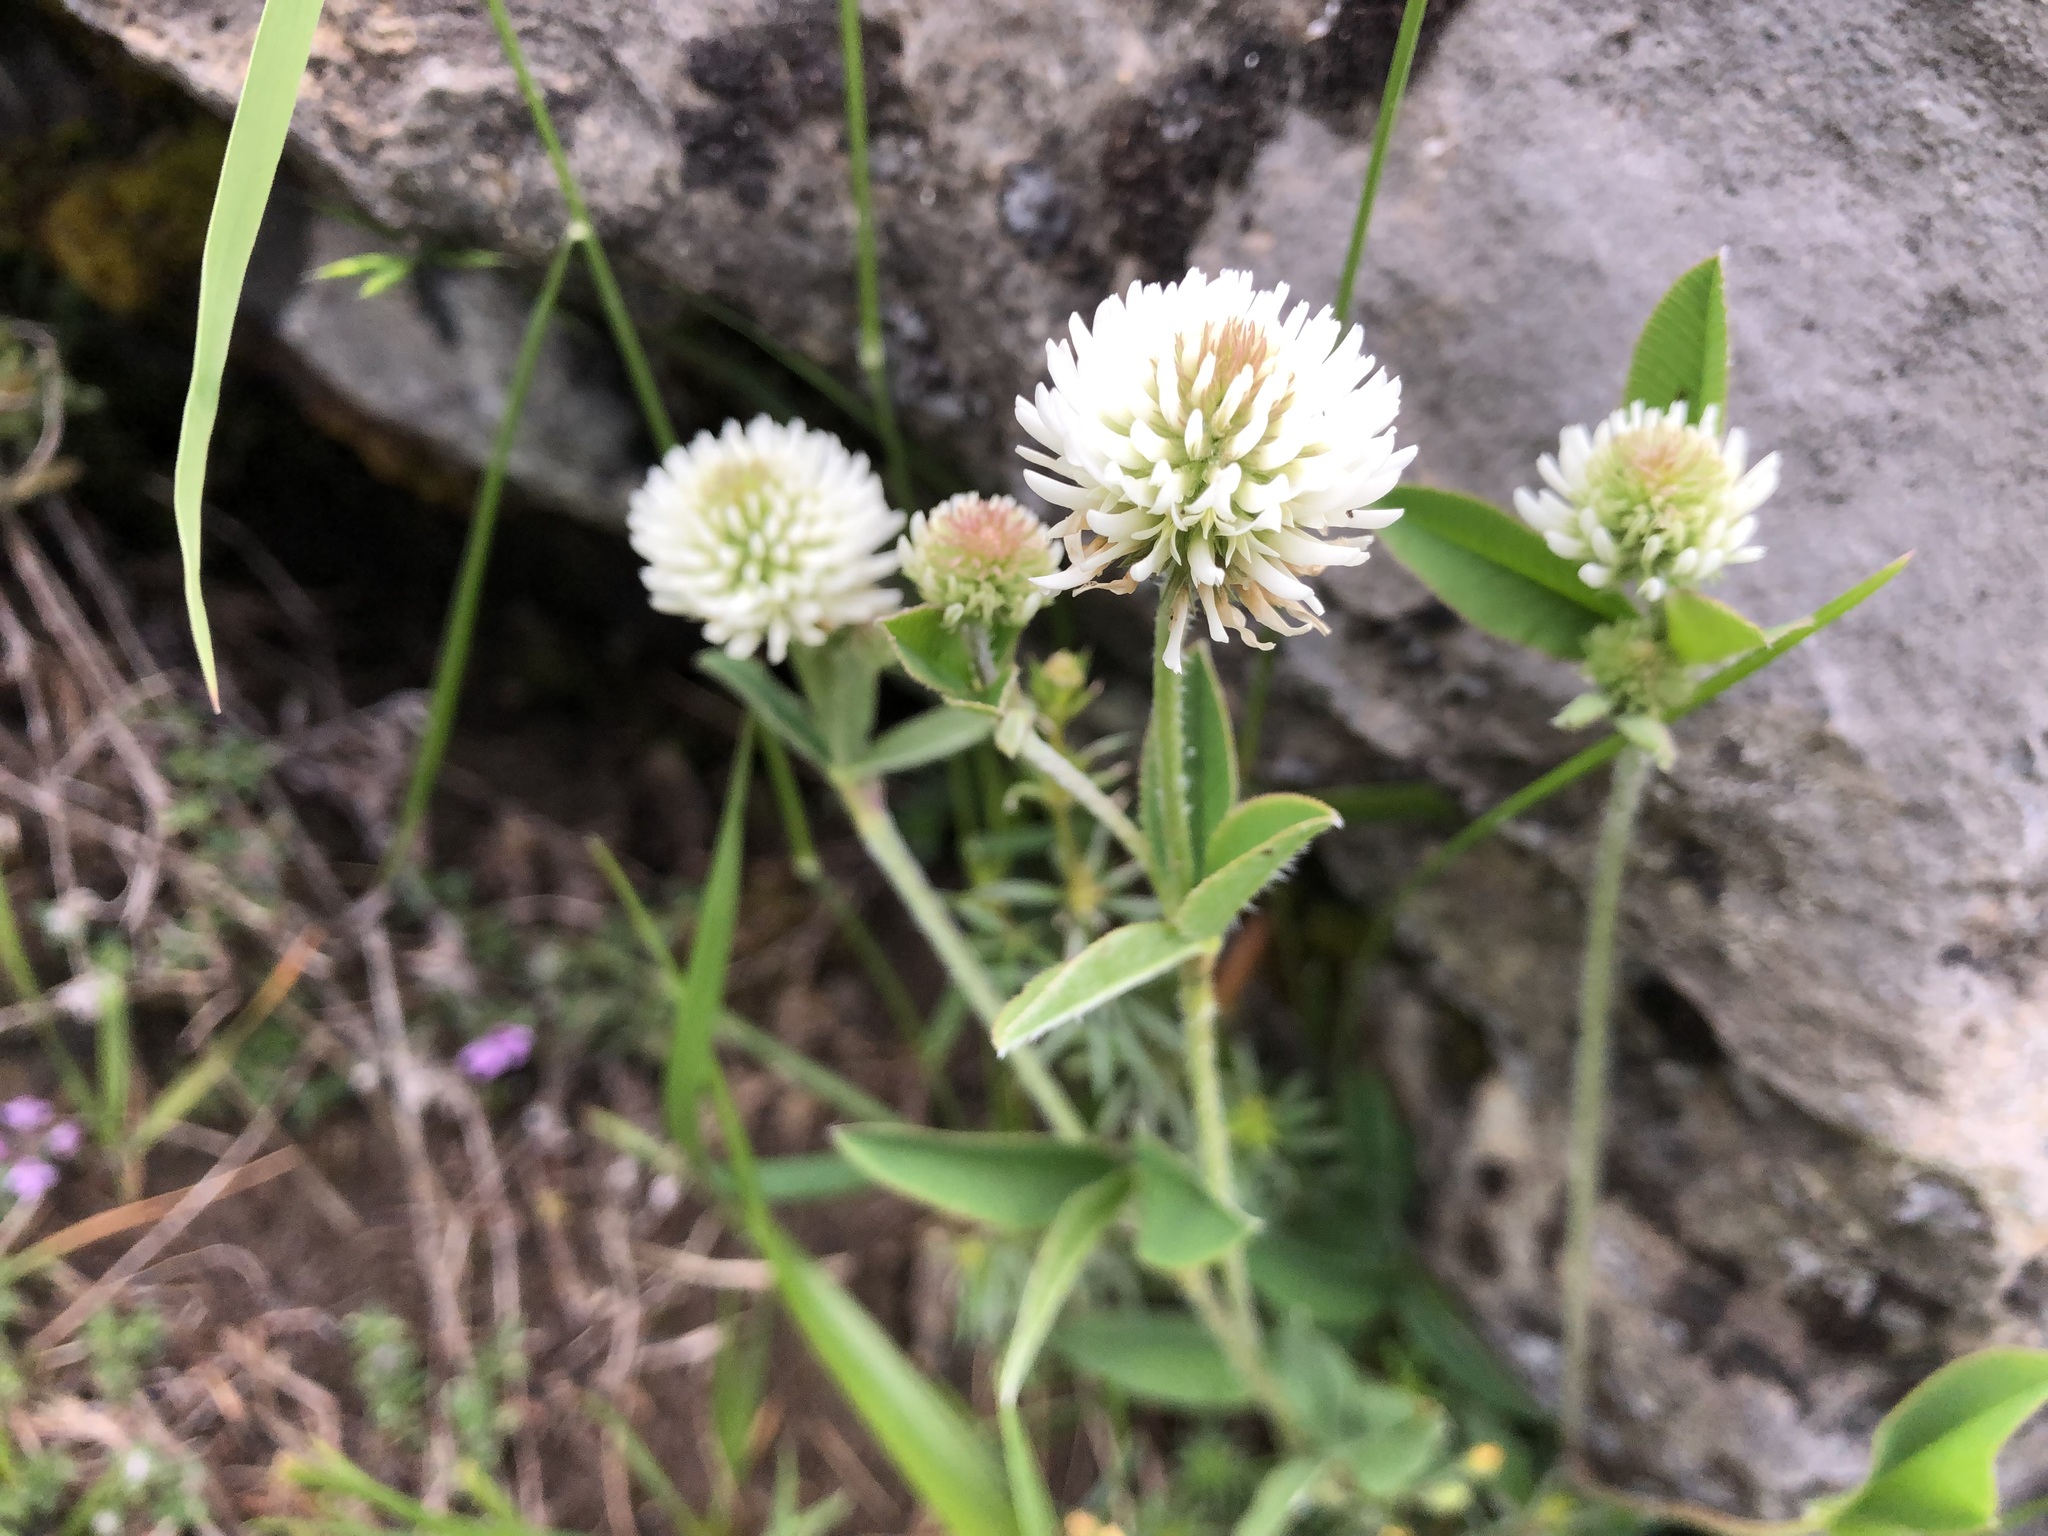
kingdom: Plantae
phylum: Tracheophyta
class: Magnoliopsida
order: Fabales
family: Fabaceae
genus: Trifolium
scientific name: Trifolium montanum
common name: Mountain clover
